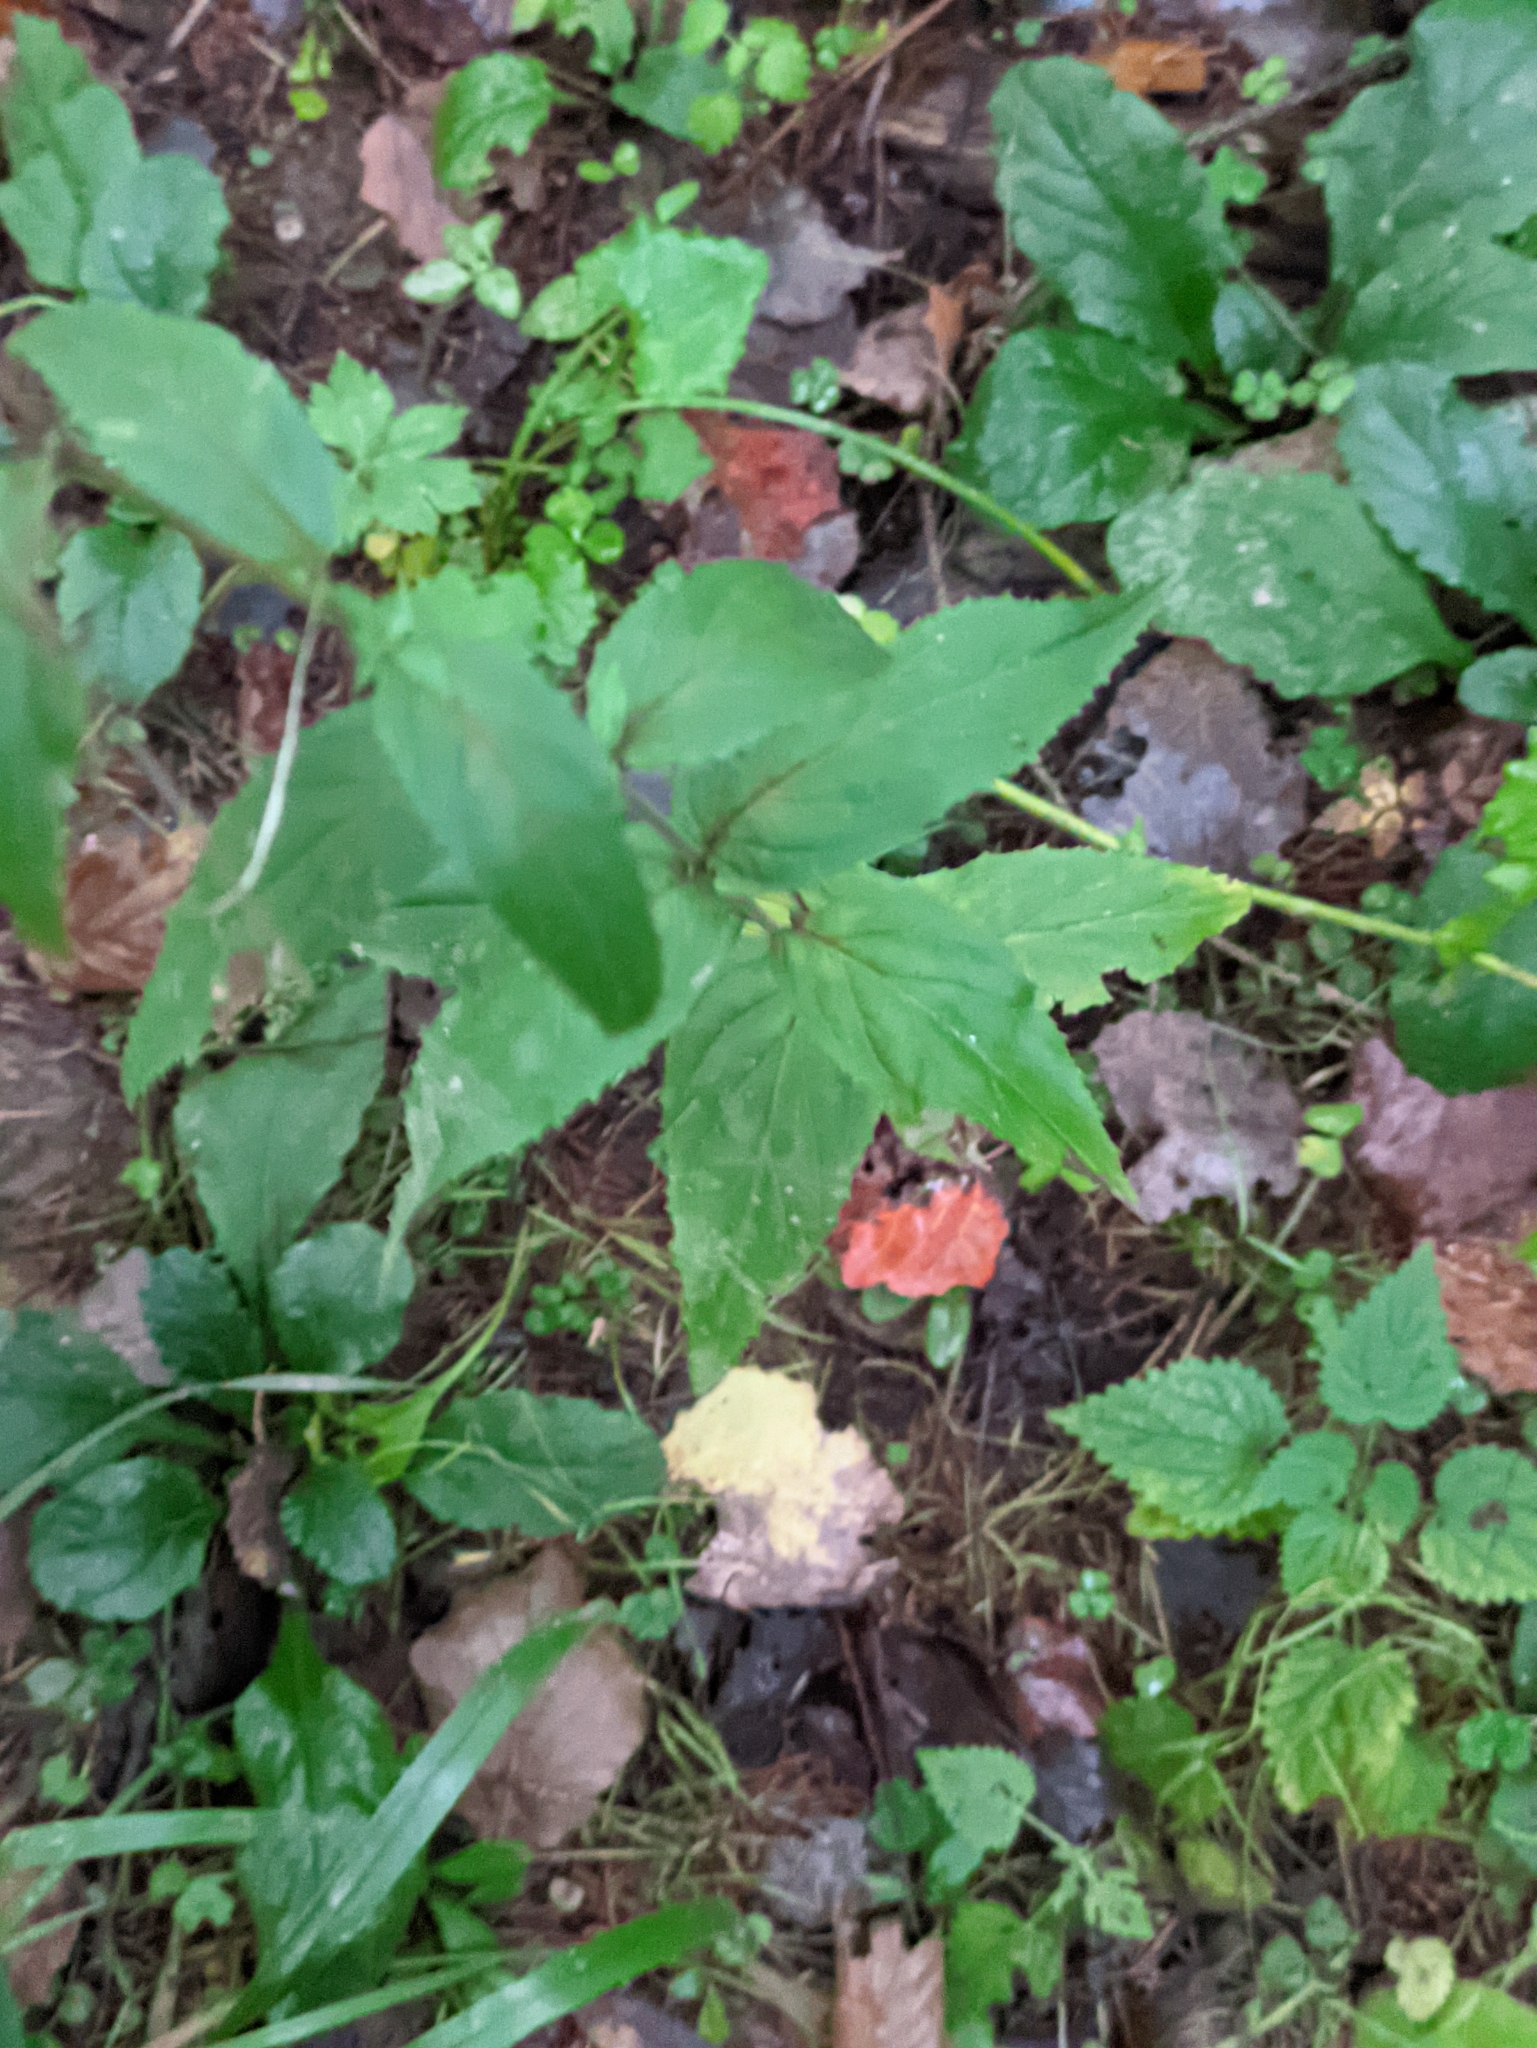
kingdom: Plantae
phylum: Tracheophyta
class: Magnoliopsida
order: Myrtales
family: Onagraceae
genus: Epilobium
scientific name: Epilobium montanum
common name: Broad-leaved willowherb
